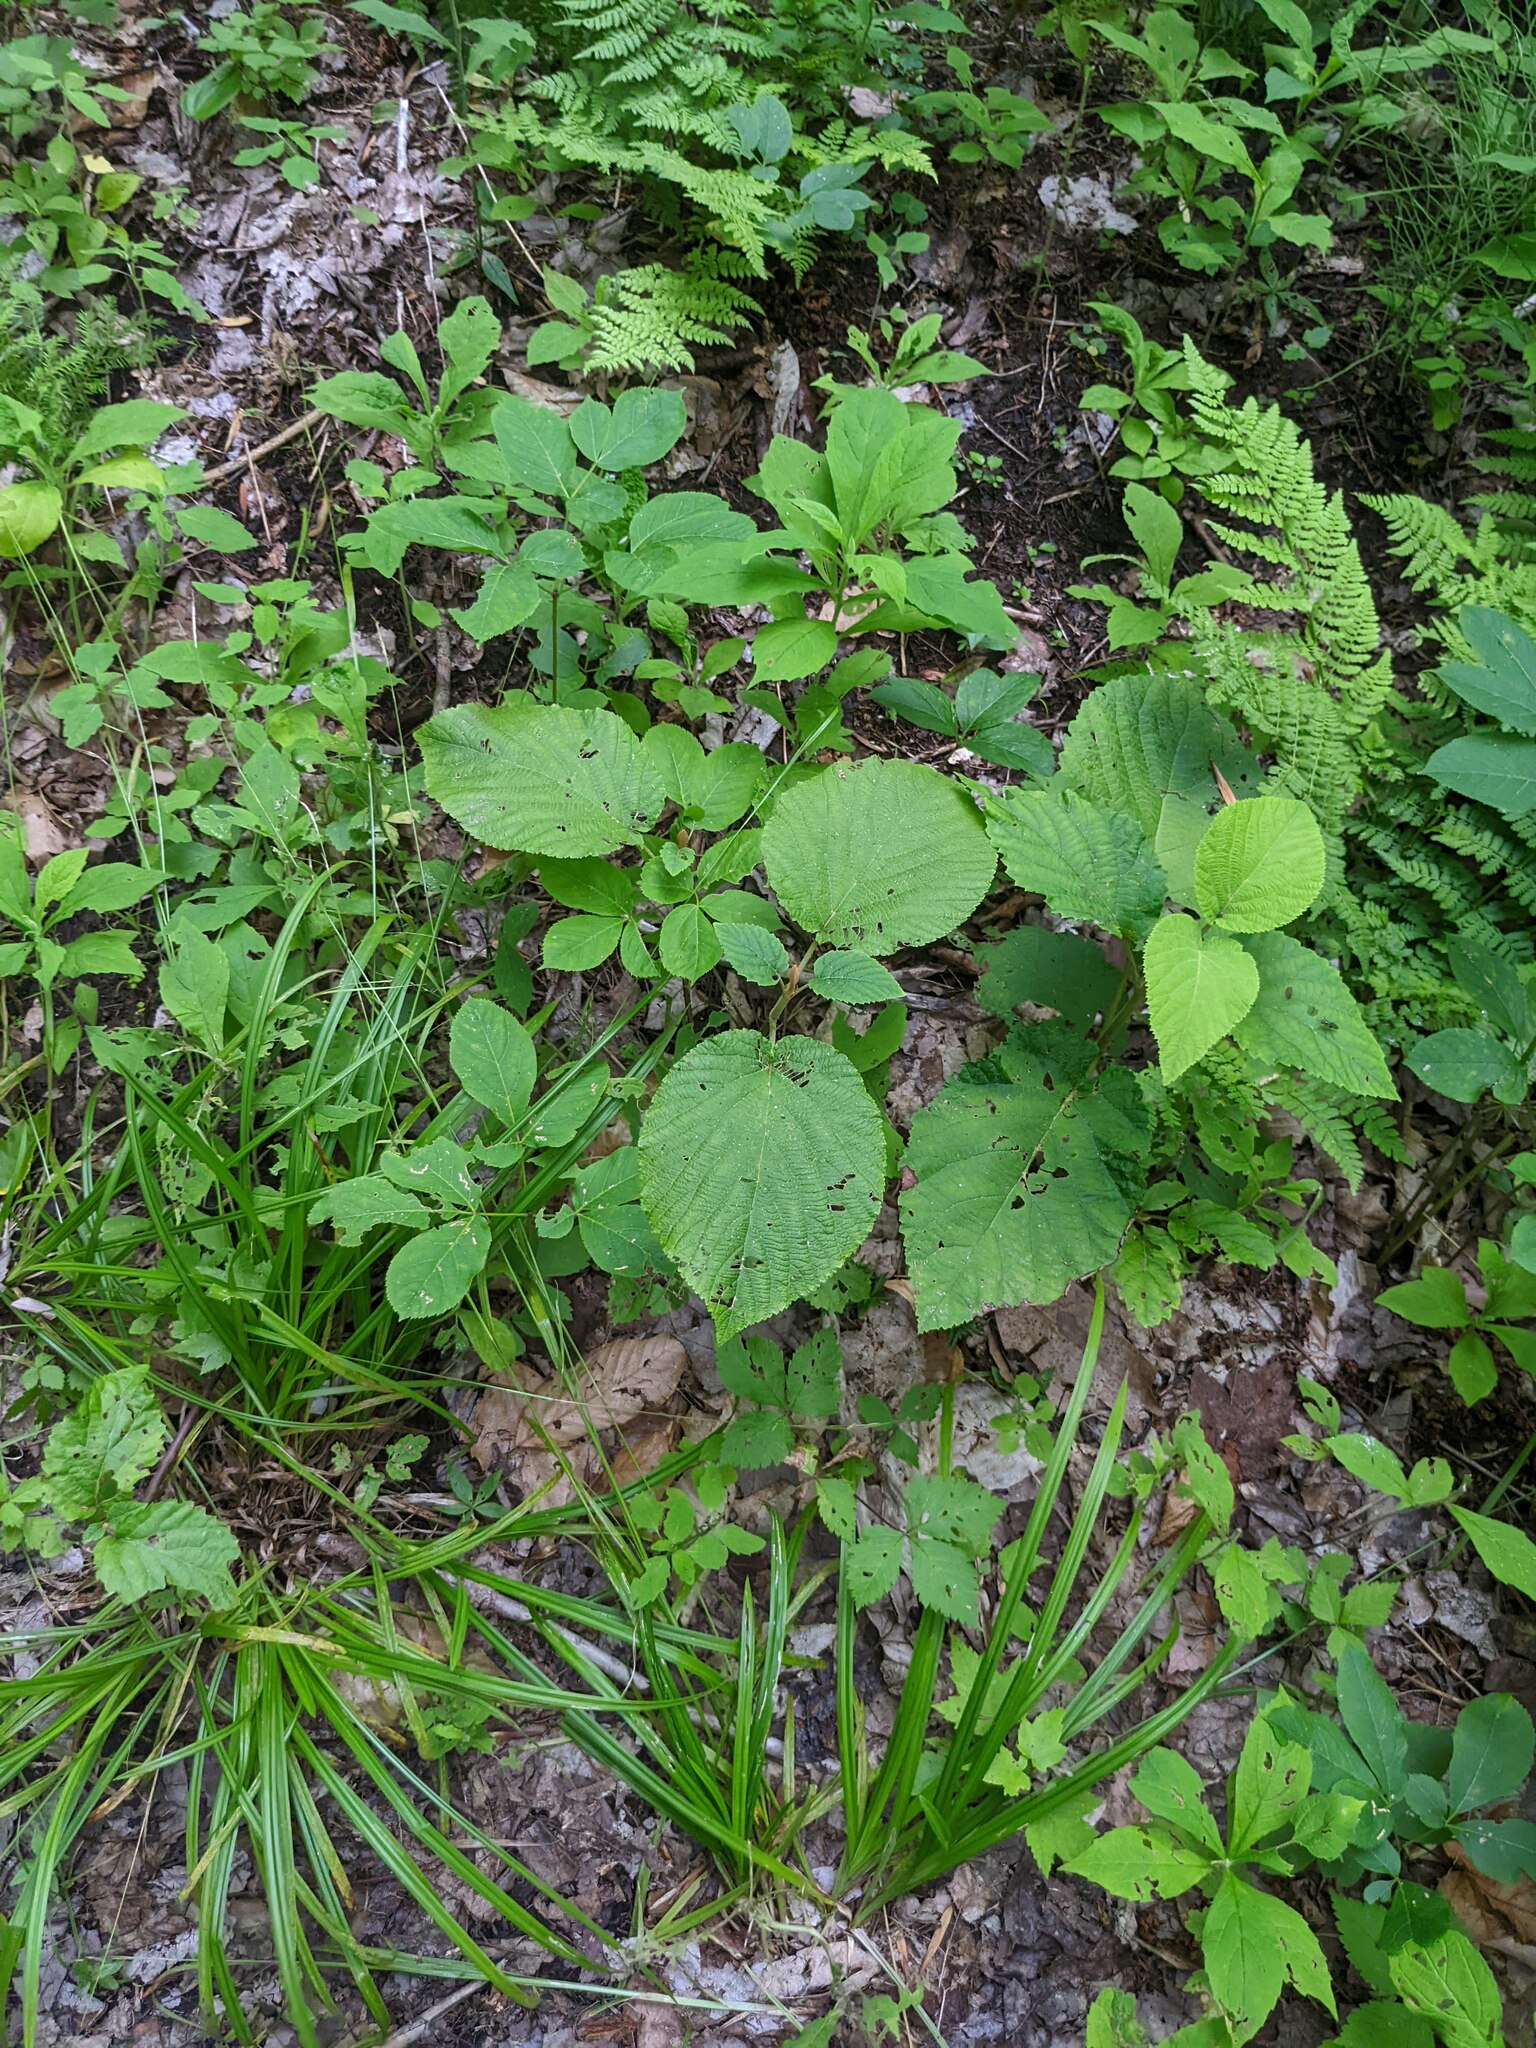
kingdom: Plantae
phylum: Tracheophyta
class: Magnoliopsida
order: Dipsacales
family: Viburnaceae
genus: Viburnum
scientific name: Viburnum lantanoides
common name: Hobblebush
